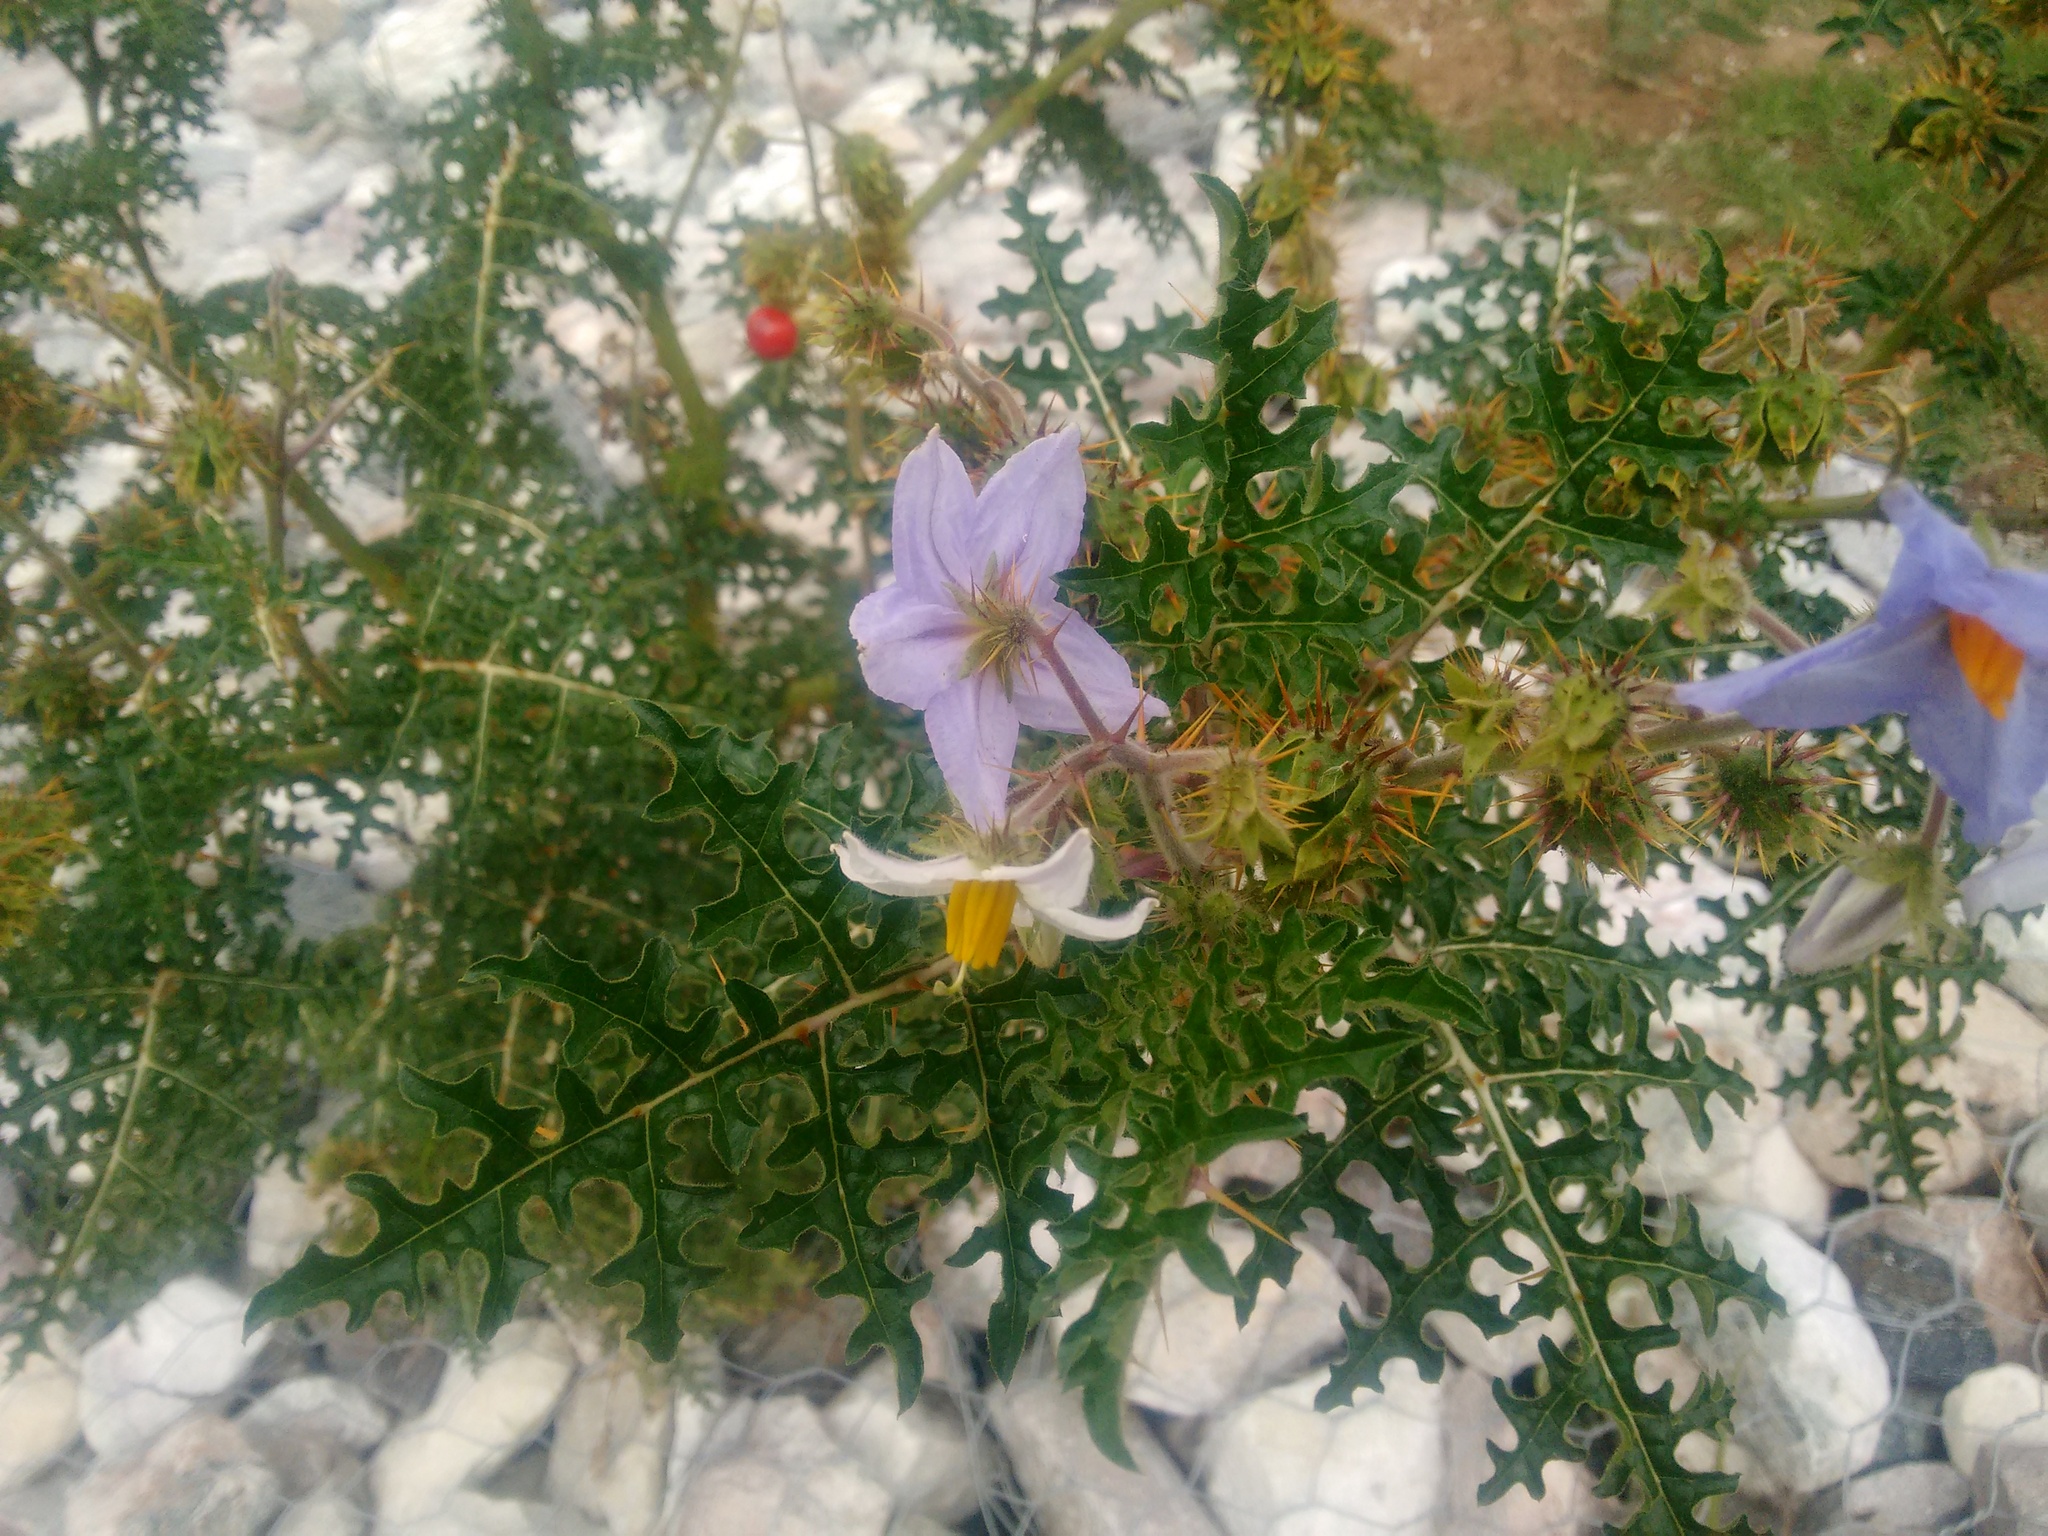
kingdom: Plantae
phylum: Tracheophyta
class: Magnoliopsida
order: Solanales
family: Solanaceae
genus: Solanum
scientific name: Solanum sisymbriifolium
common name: Red buffalo-bur
